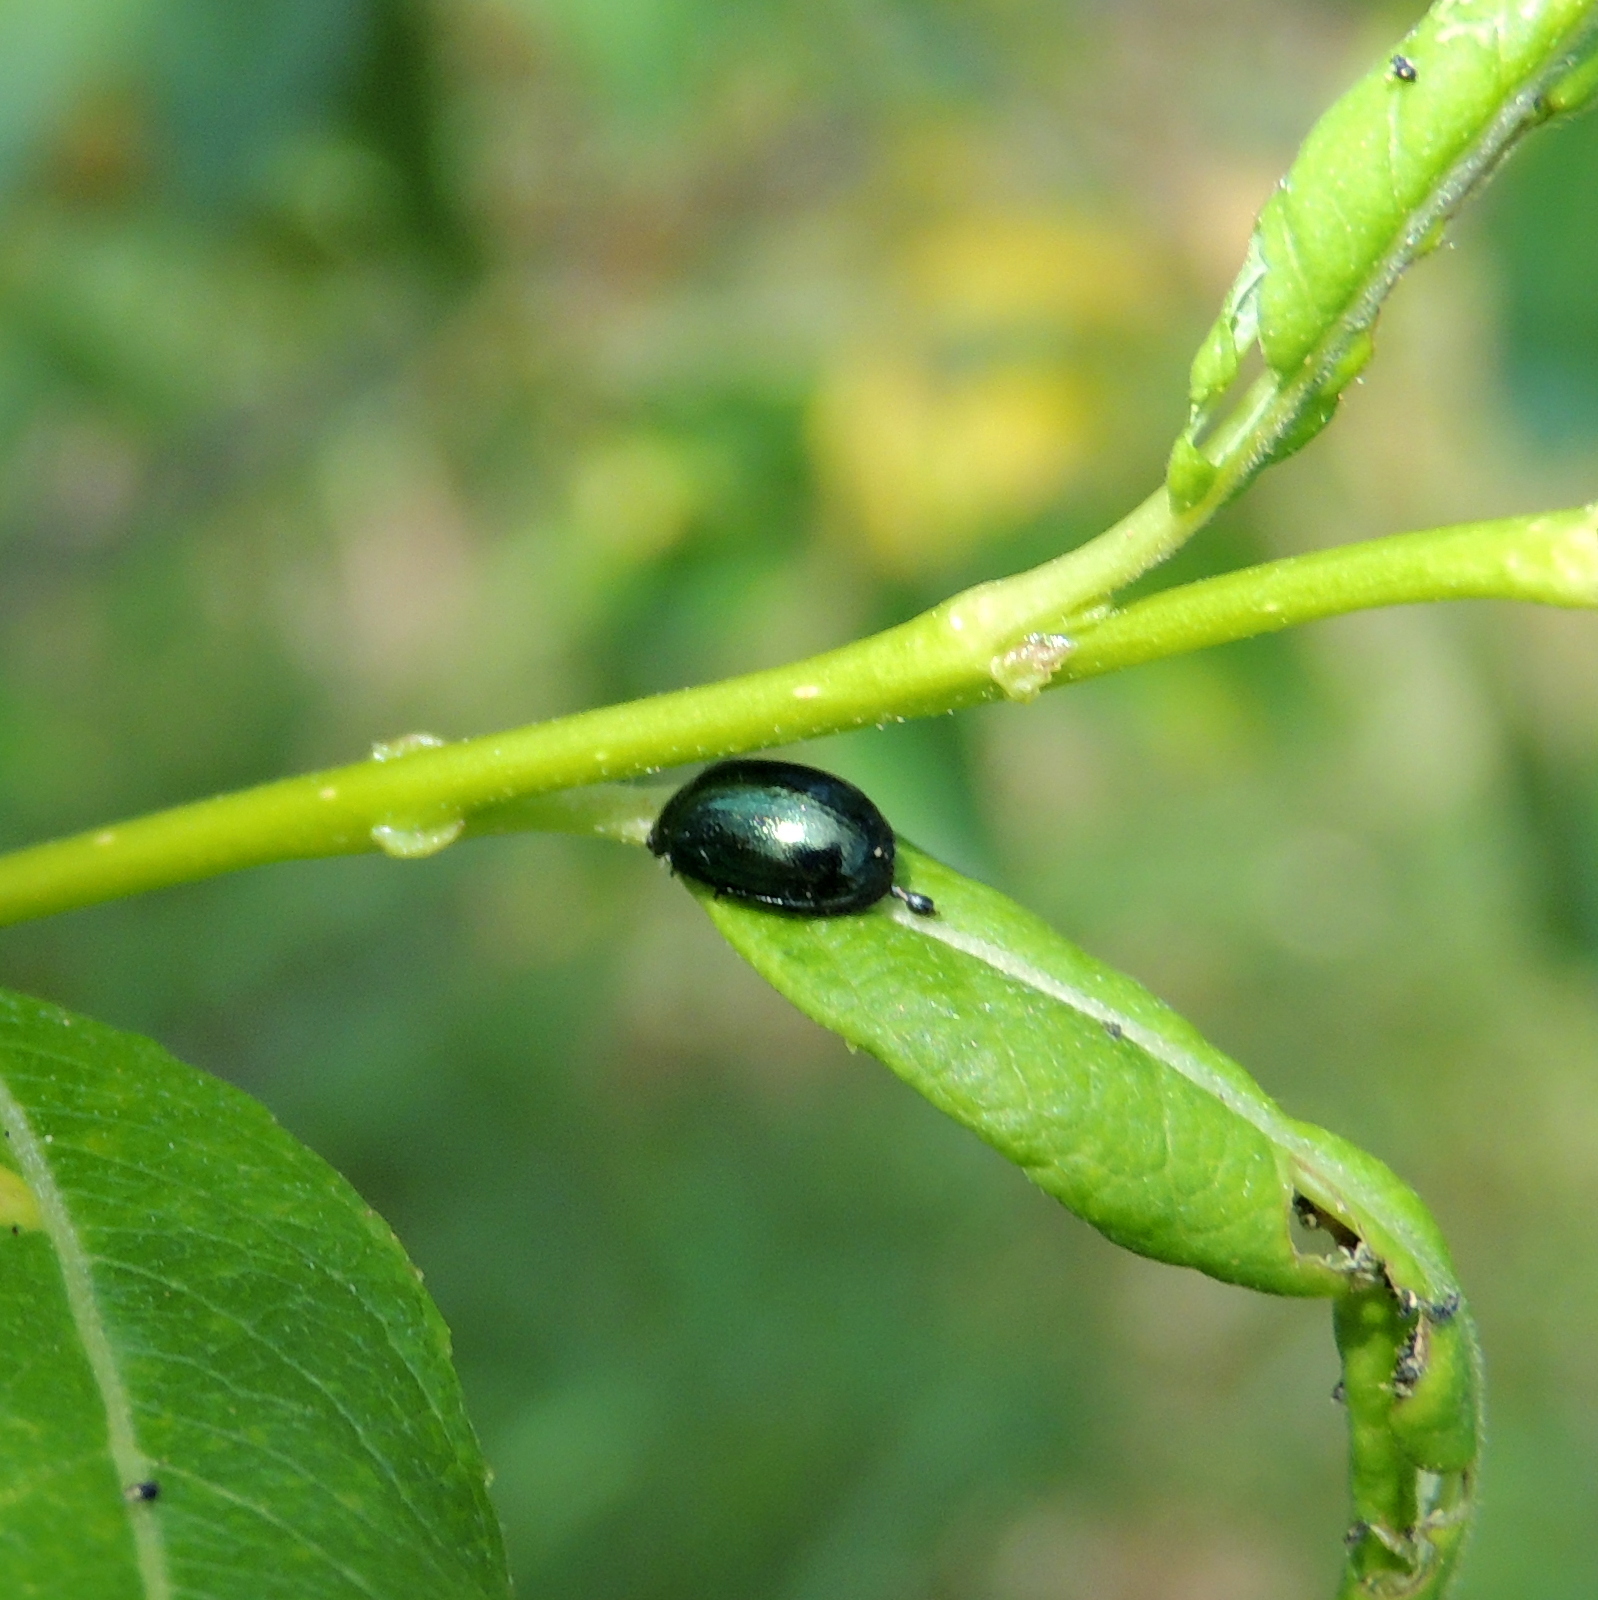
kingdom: Animalia
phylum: Arthropoda
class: Insecta
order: Coleoptera
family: Chrysomelidae
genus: Plagiodera
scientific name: Plagiodera versicolora
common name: Imported willow leaf beetle
